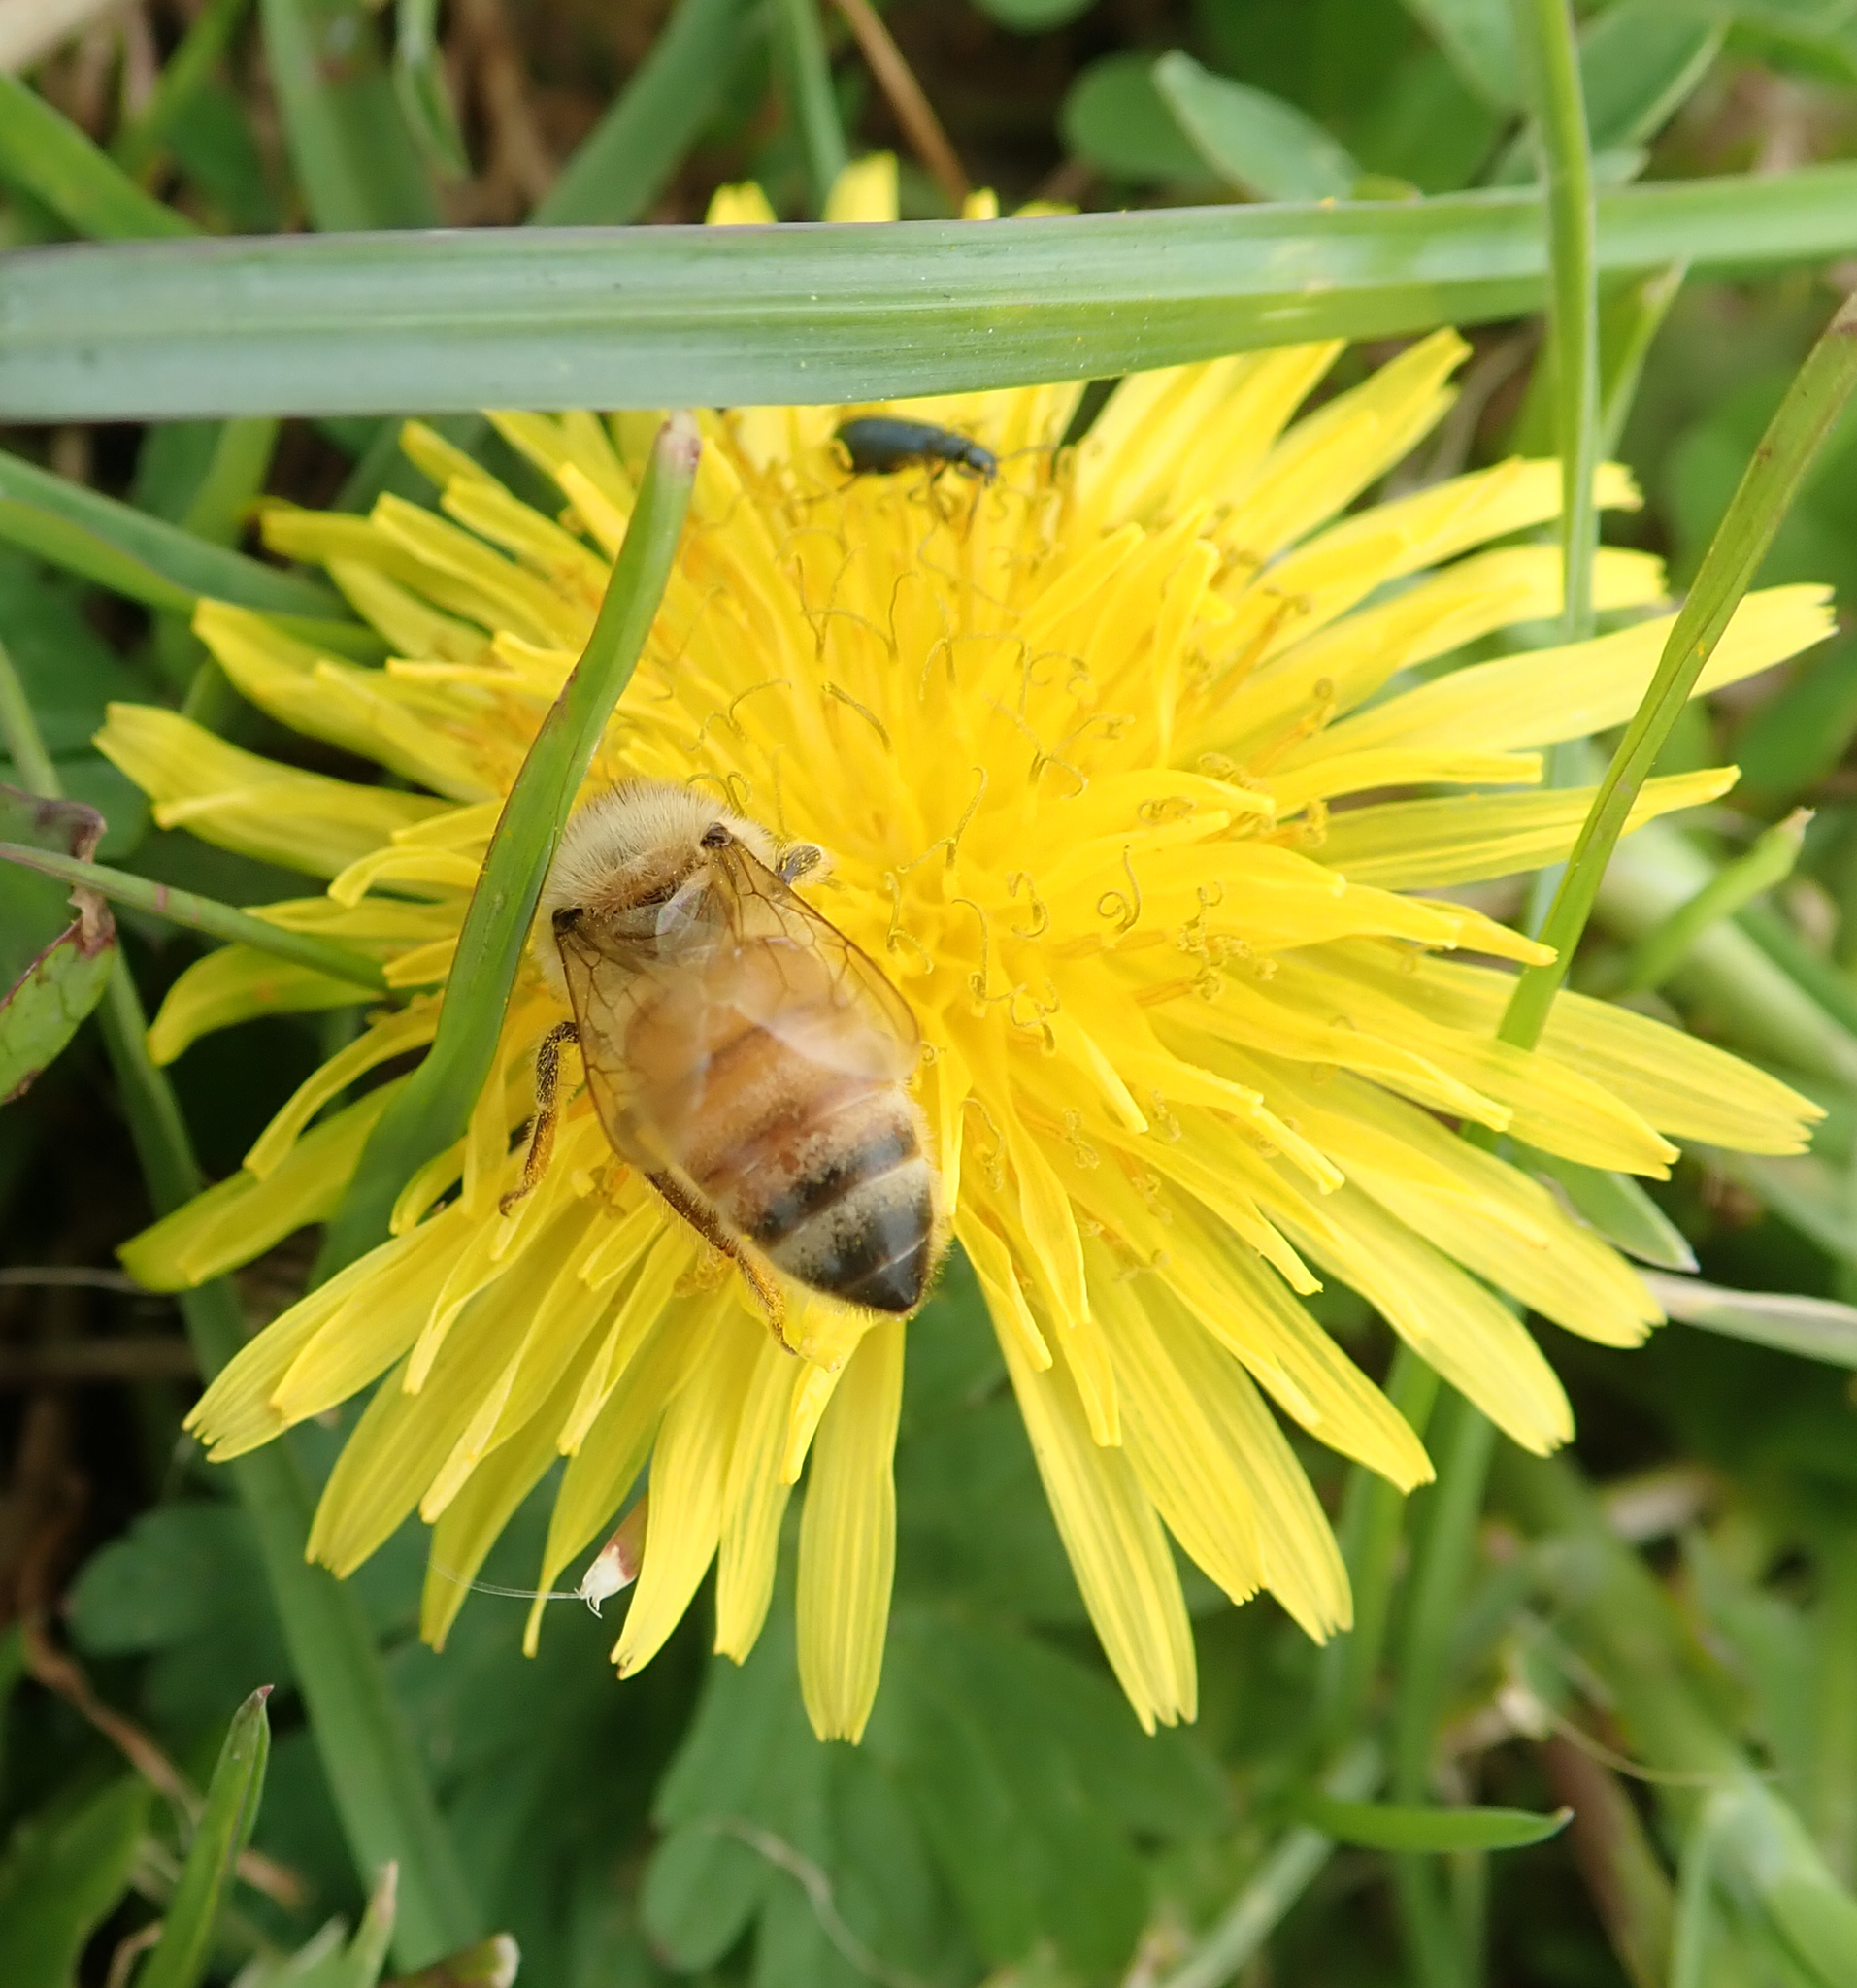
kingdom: Animalia
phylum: Arthropoda
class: Insecta
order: Hymenoptera
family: Apidae
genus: Apis
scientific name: Apis mellifera
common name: Honey bee
